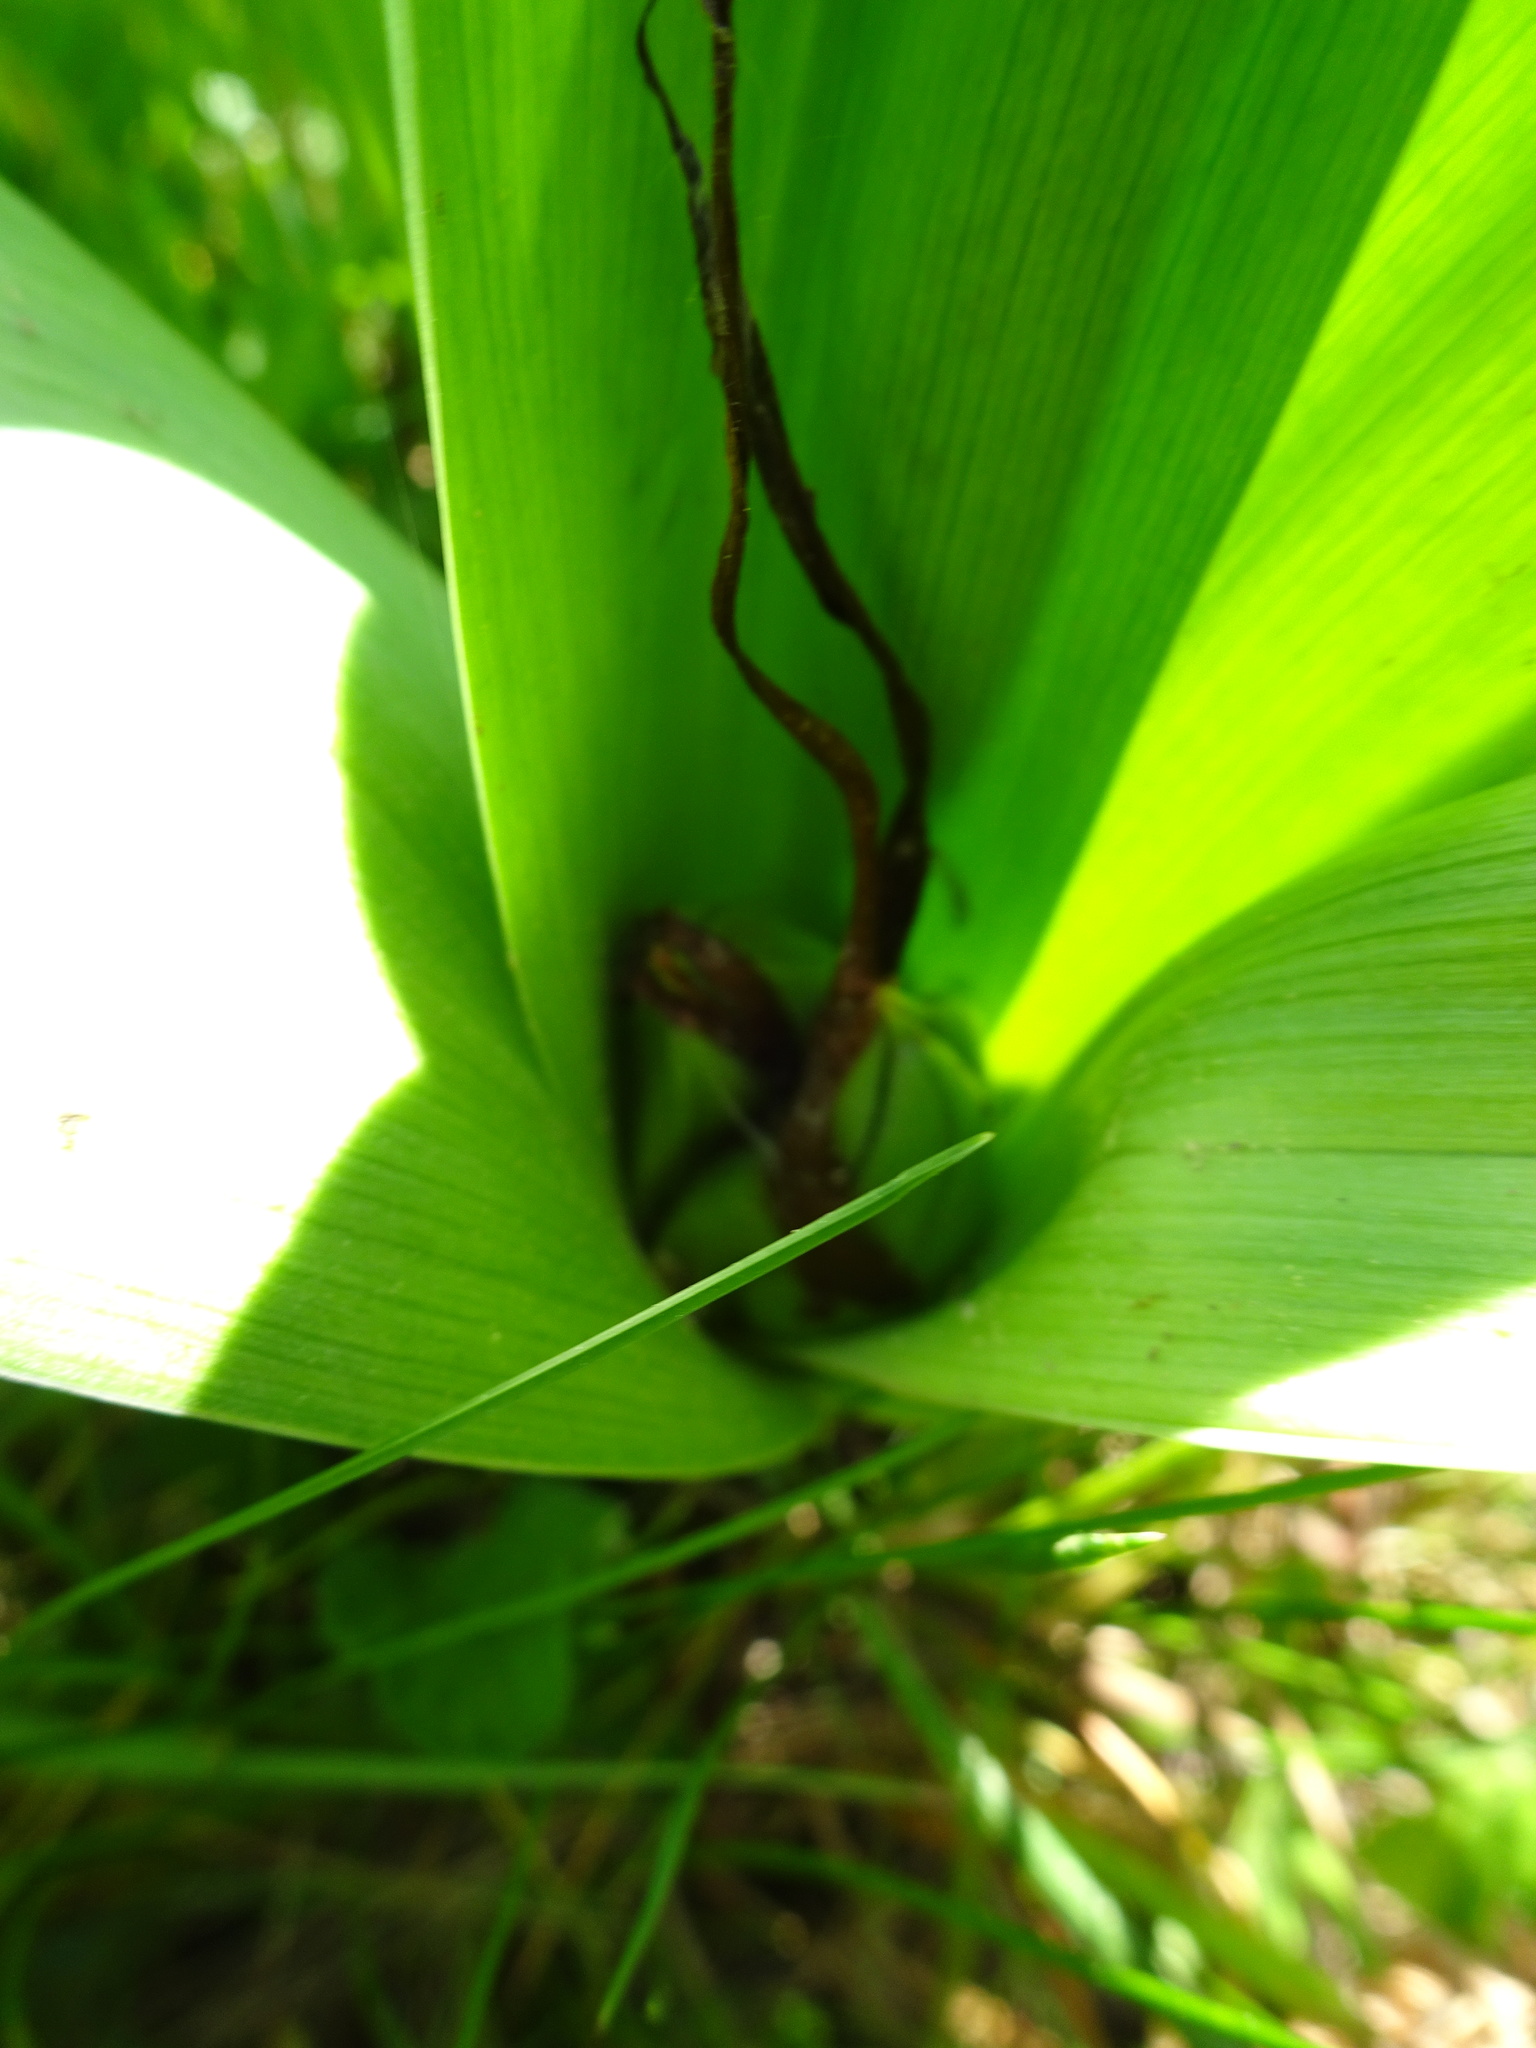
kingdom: Plantae
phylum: Tracheophyta
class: Liliopsida
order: Liliales
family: Colchicaceae
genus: Colchicum
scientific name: Colchicum autumnale
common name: Autumn crocus
